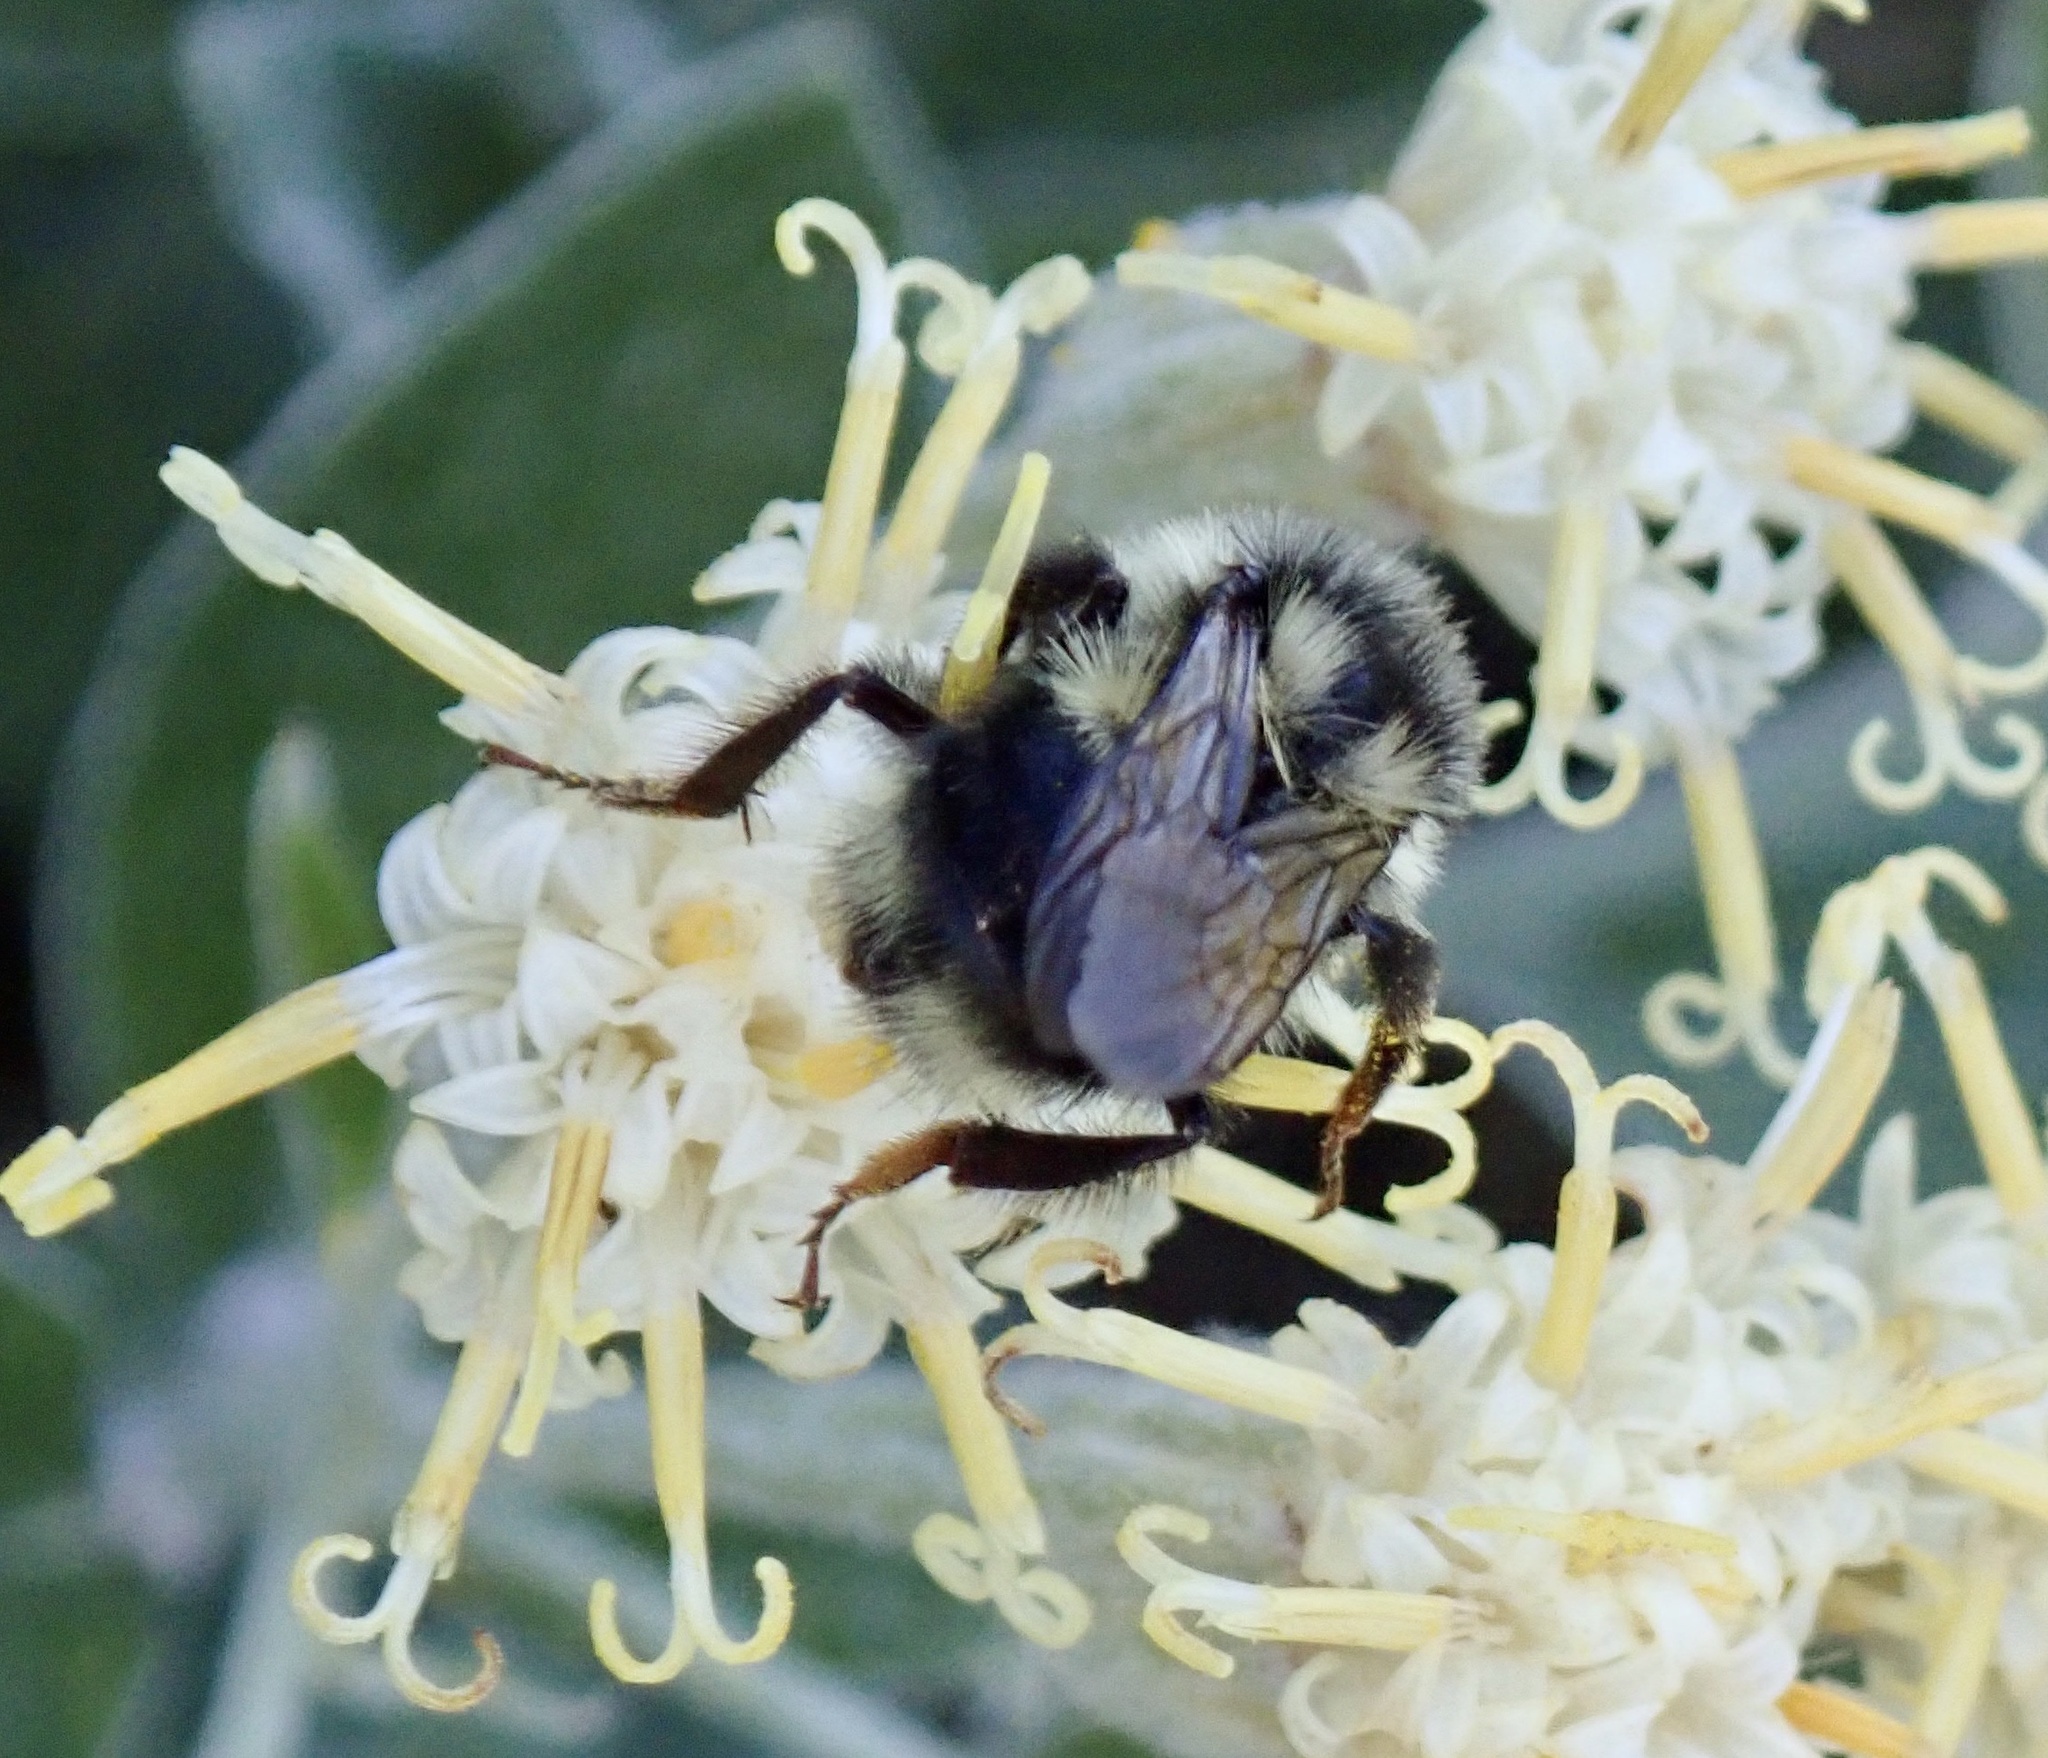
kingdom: Animalia
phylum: Arthropoda
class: Insecta
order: Hymenoptera
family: Apidae
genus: Bombus
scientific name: Bombus vancouverensis
